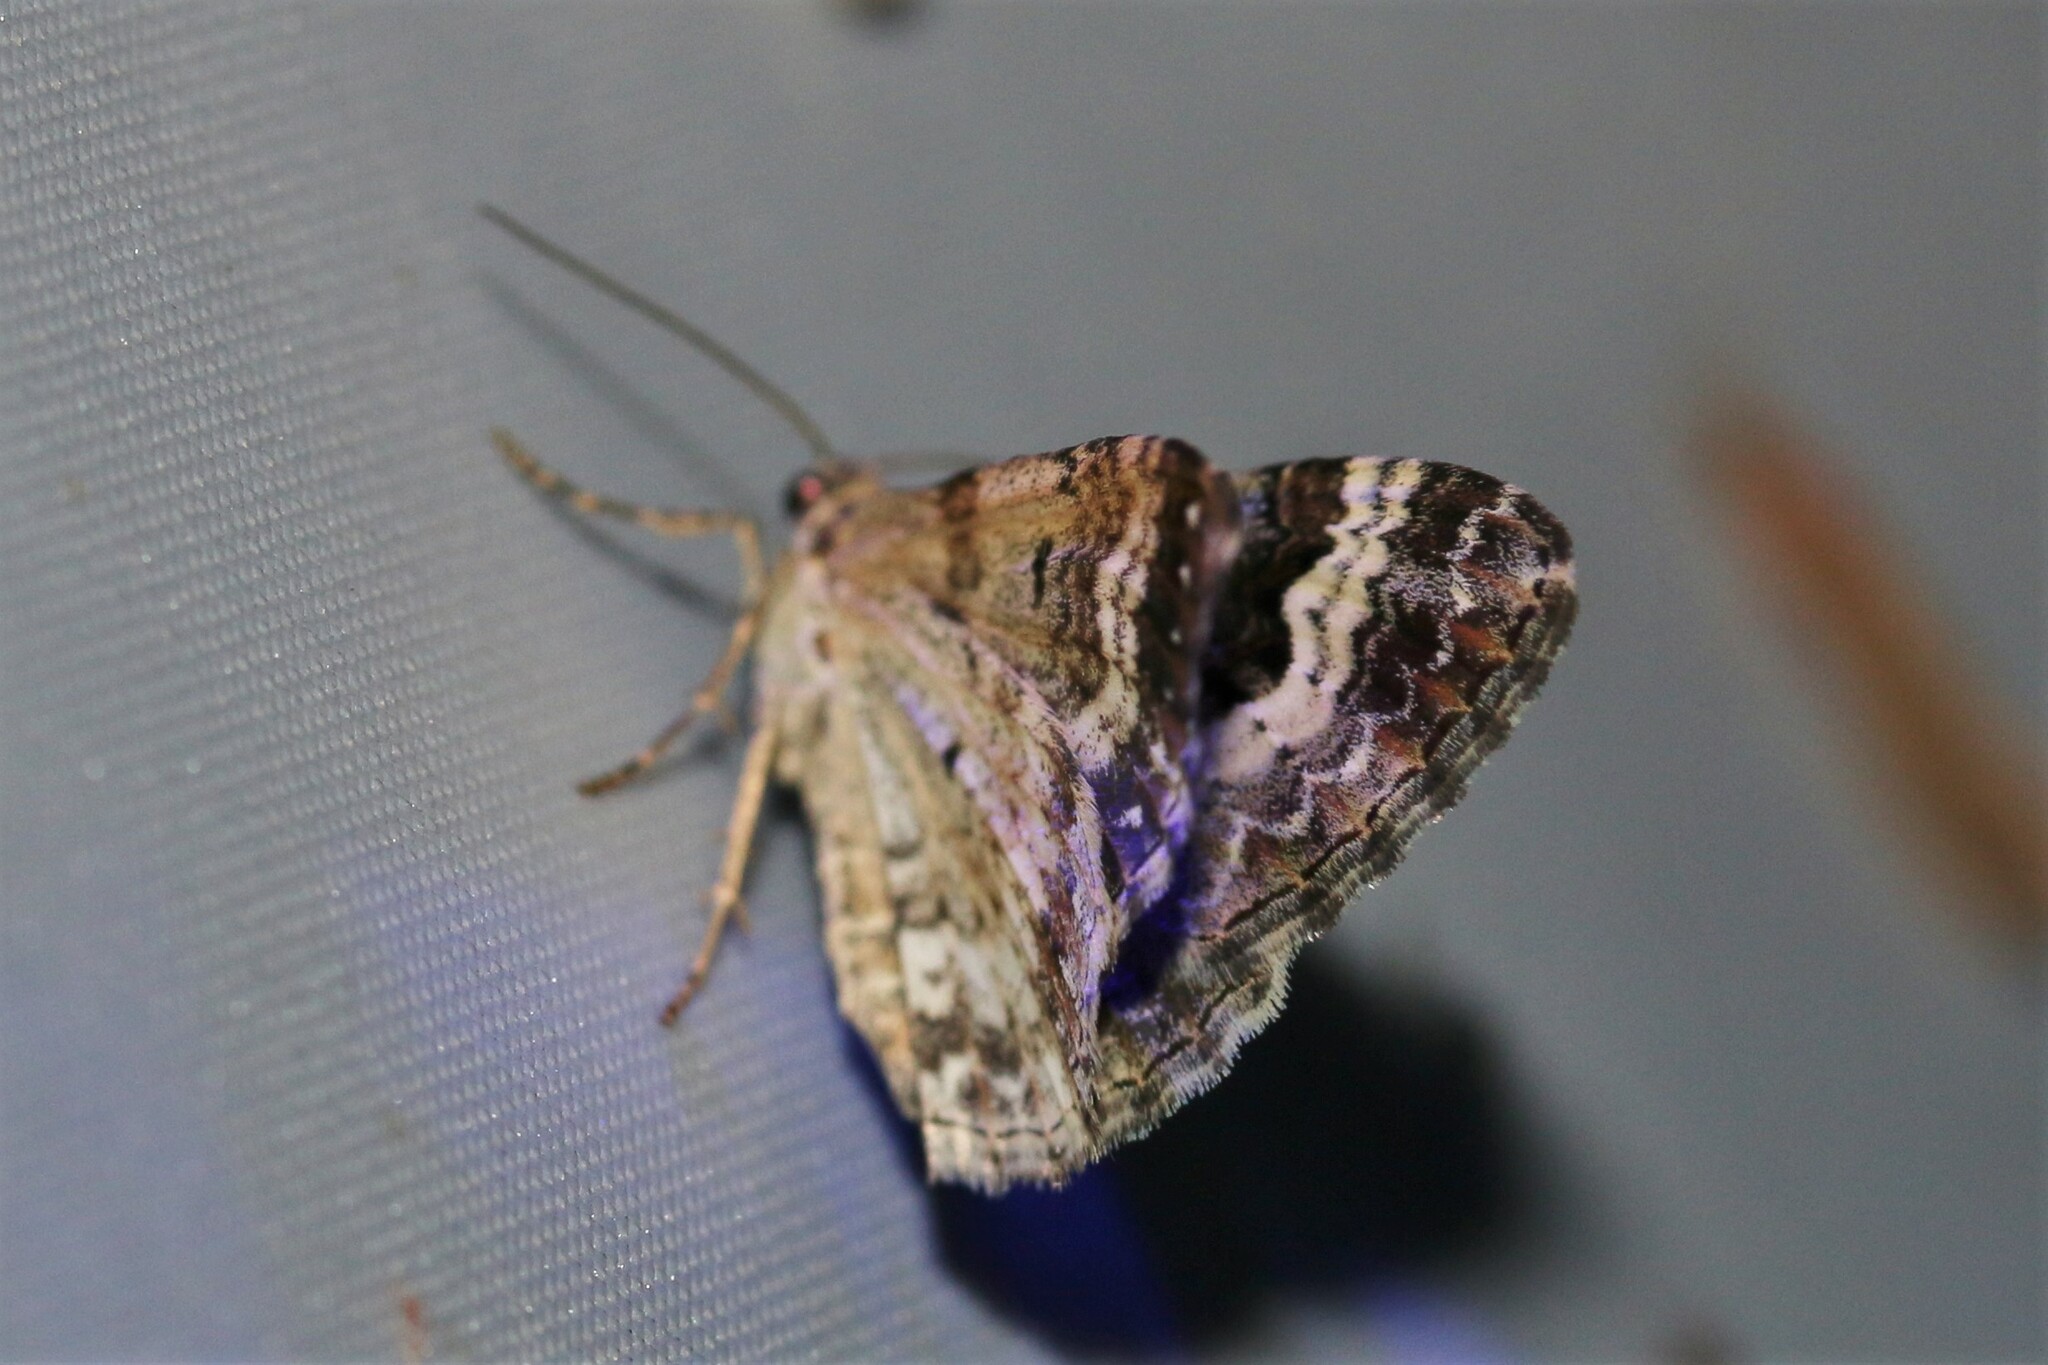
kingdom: Animalia
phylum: Arthropoda
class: Insecta
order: Lepidoptera
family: Geometridae
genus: Epirrhoe
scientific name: Epirrhoe alternata
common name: Common carpet
